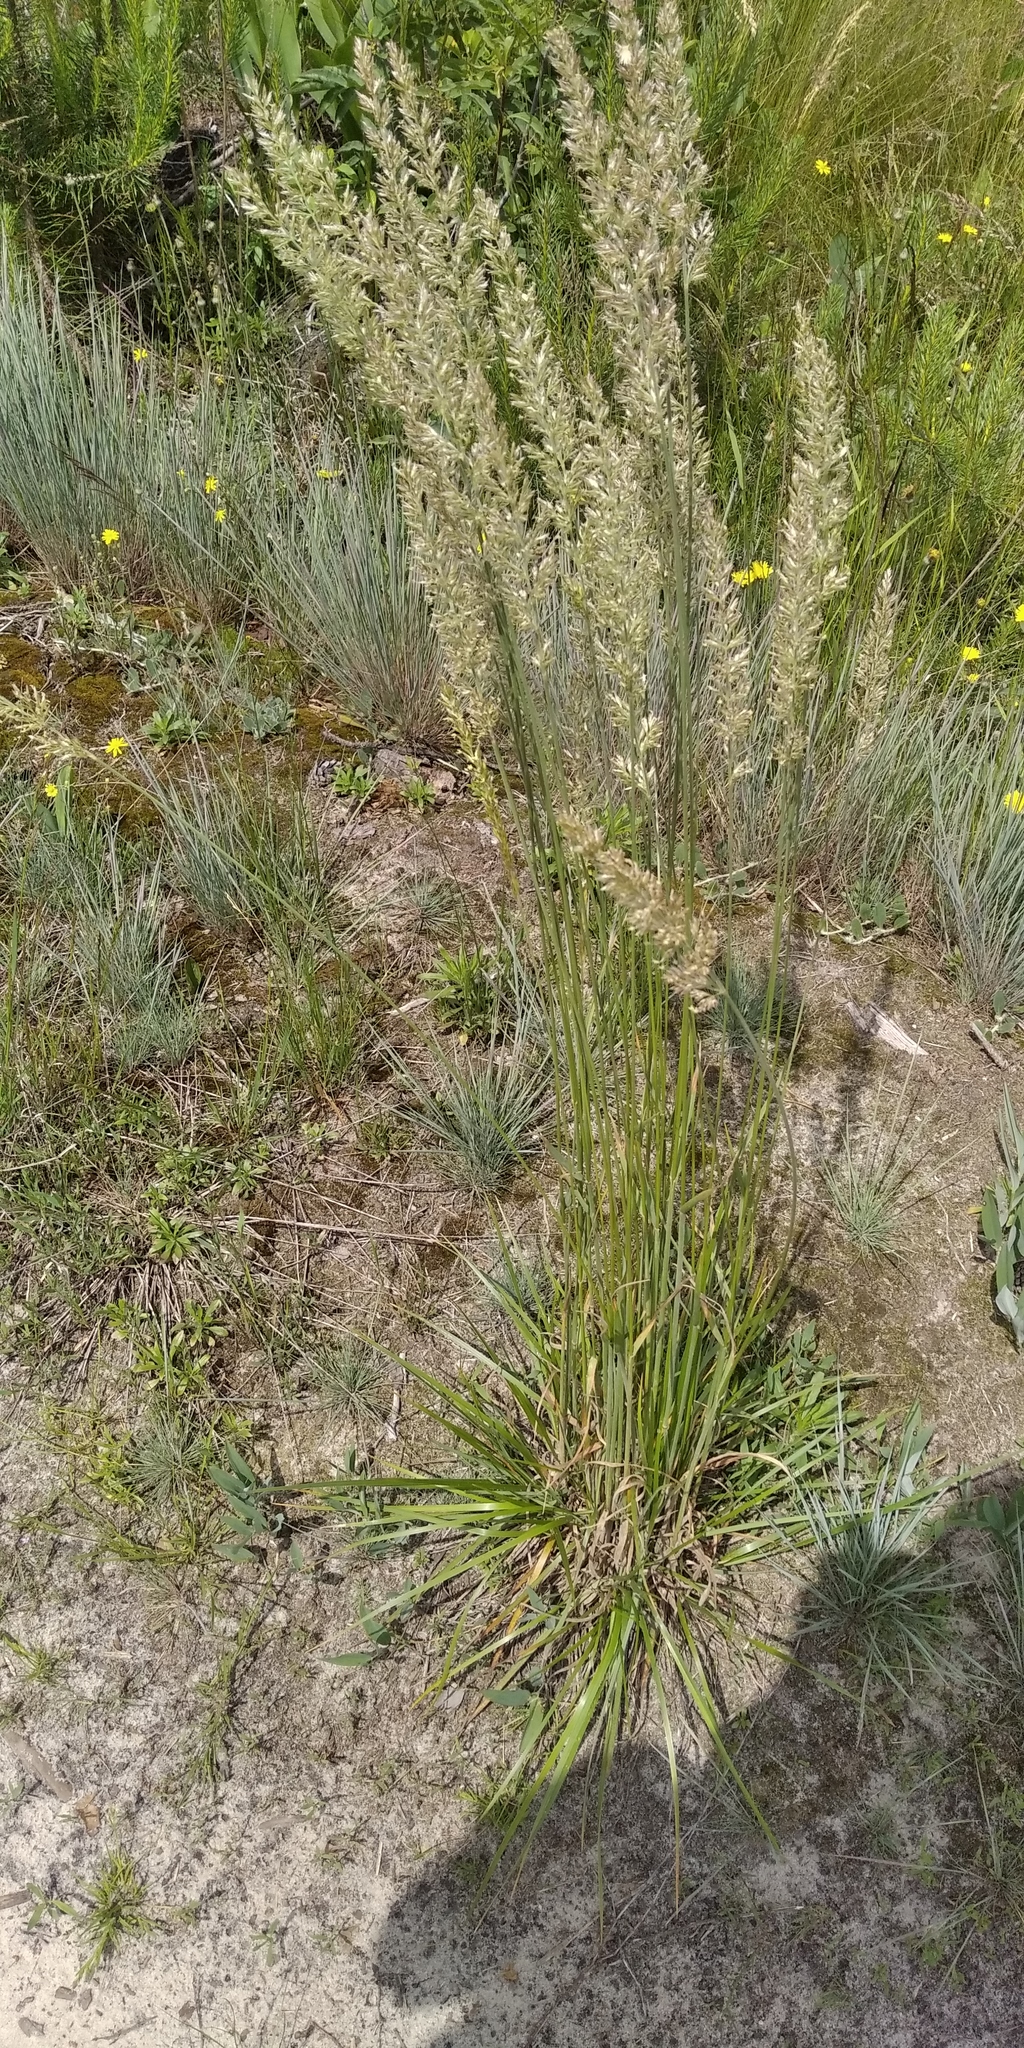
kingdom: Plantae
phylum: Tracheophyta
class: Liliopsida
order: Poales
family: Poaceae
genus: Koeleria
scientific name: Koeleria glauca
